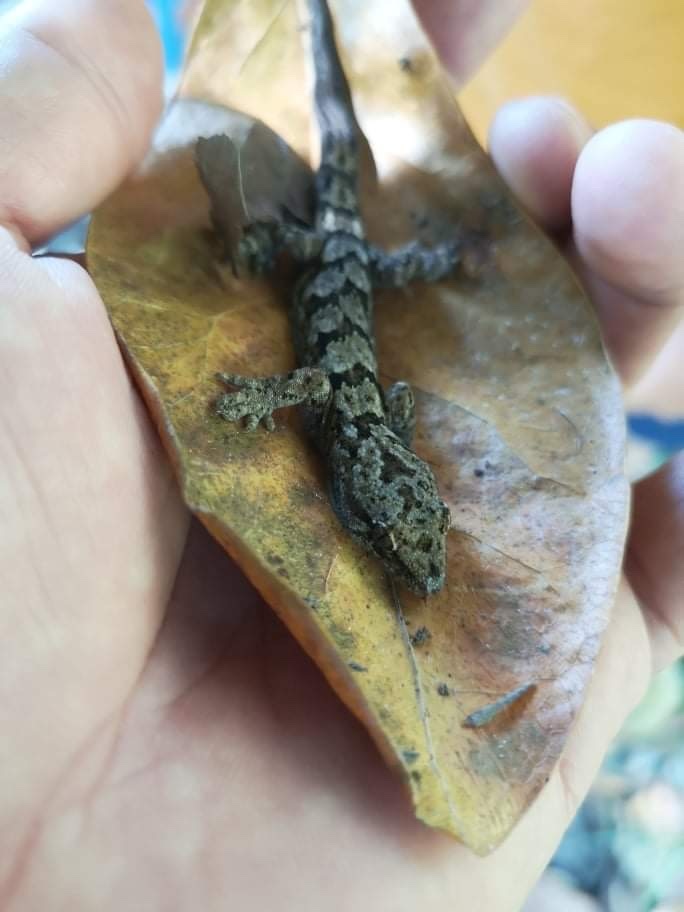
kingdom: Animalia
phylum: Chordata
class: Squamata
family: Diplodactylidae
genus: Woodworthia
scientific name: Woodworthia maculata
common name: Raukawa gecko
